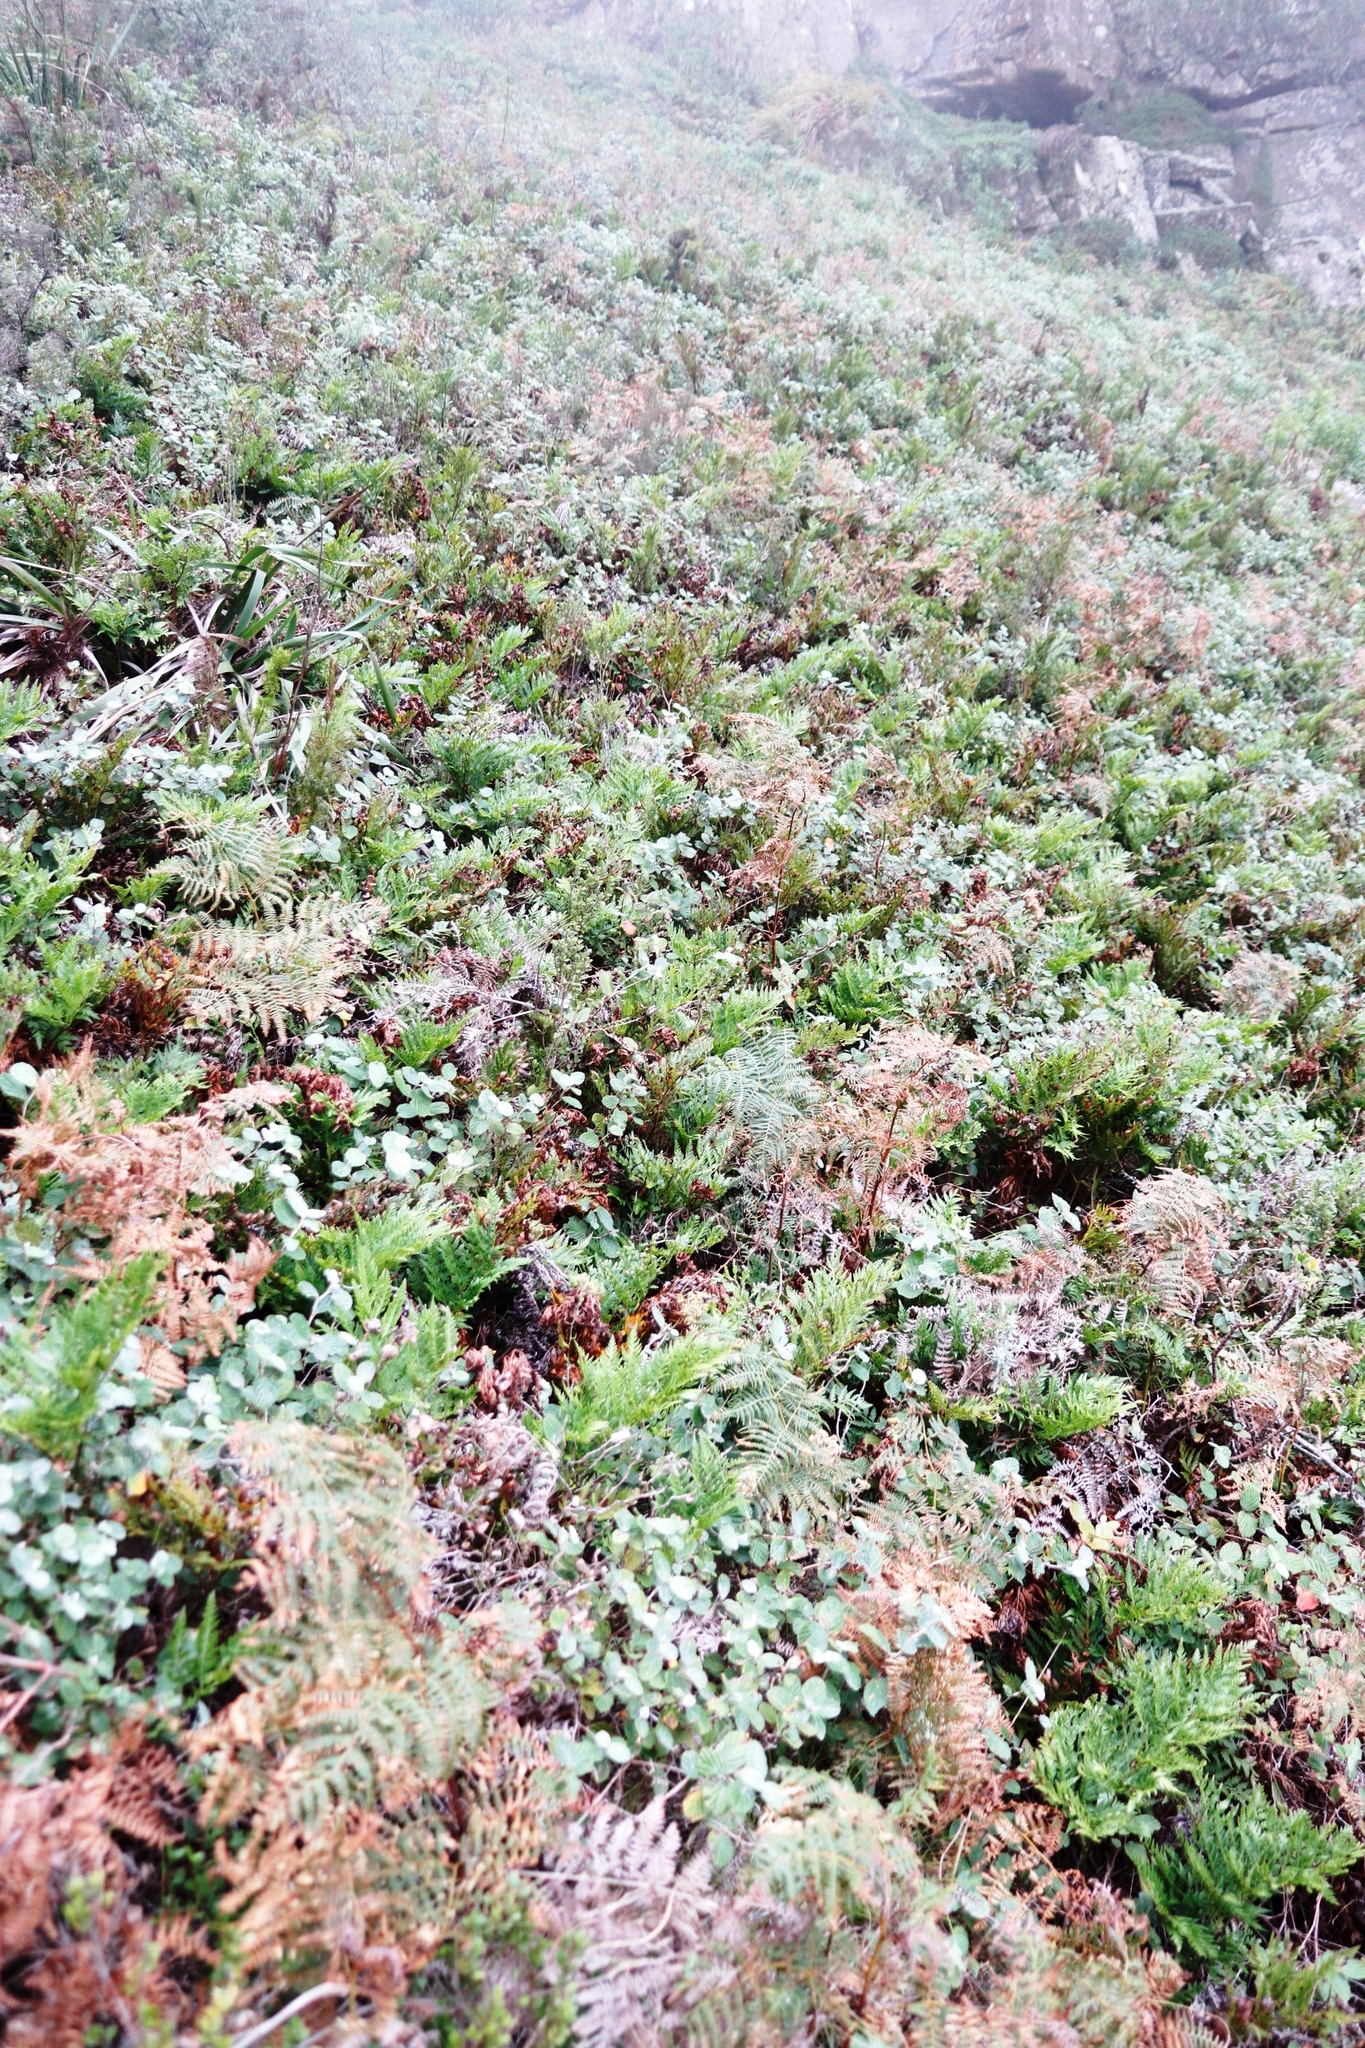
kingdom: Plantae
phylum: Tracheophyta
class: Magnoliopsida
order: Rosales
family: Rosaceae
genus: Cliffortia
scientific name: Cliffortia odorata
